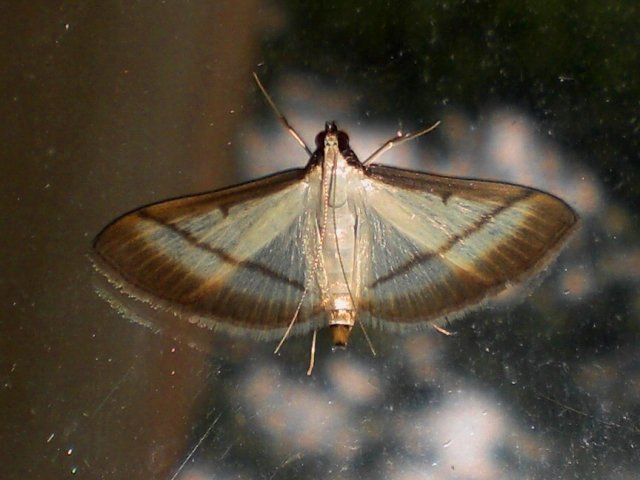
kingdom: Animalia
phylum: Arthropoda
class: Insecta
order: Lepidoptera
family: Crambidae
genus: Bradina
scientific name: Bradina diagonalis
